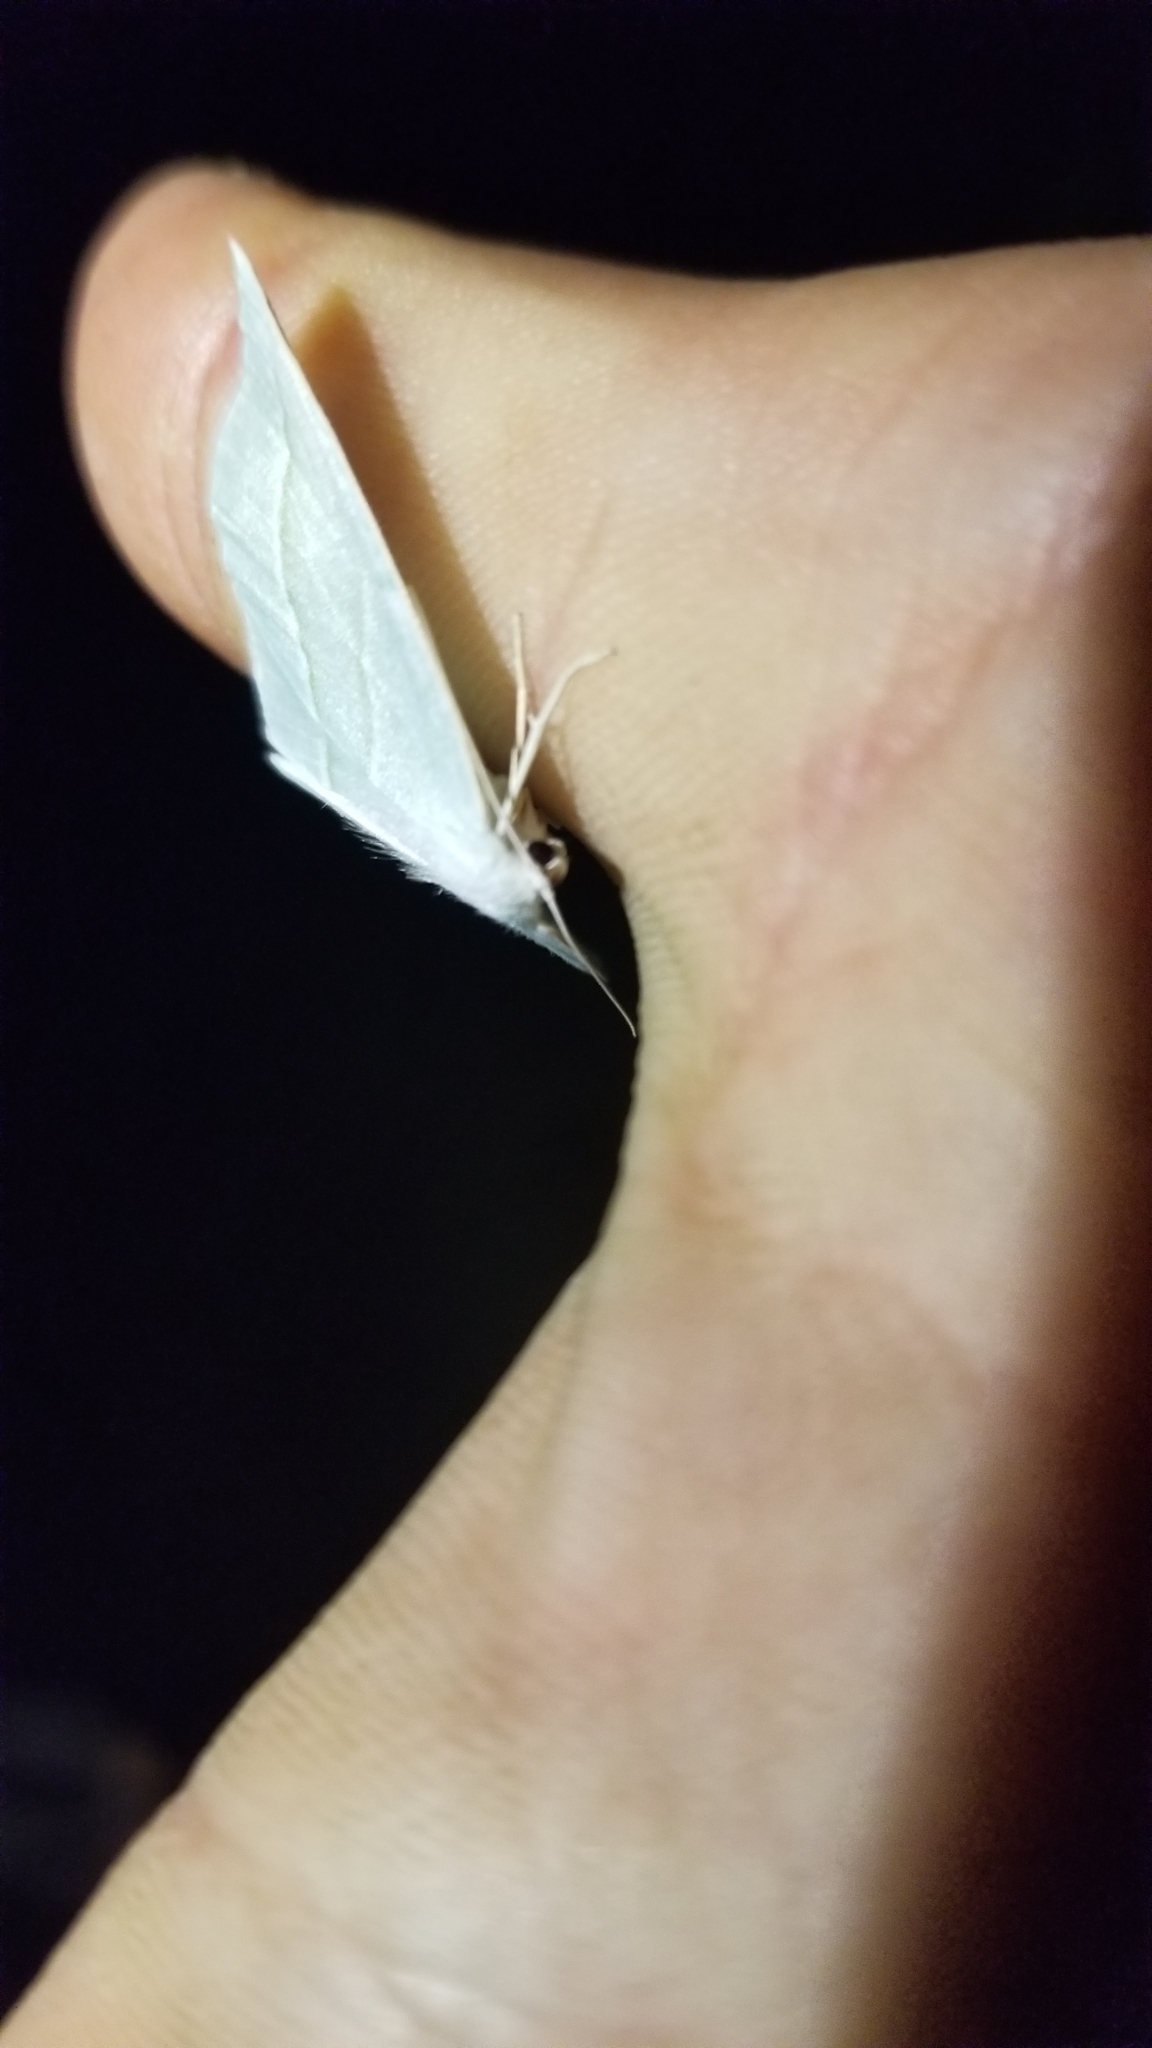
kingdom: Animalia
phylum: Arthropoda
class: Insecta
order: Lepidoptera
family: Geometridae
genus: Campaea
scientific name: Campaea perlata
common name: Fringed looper
